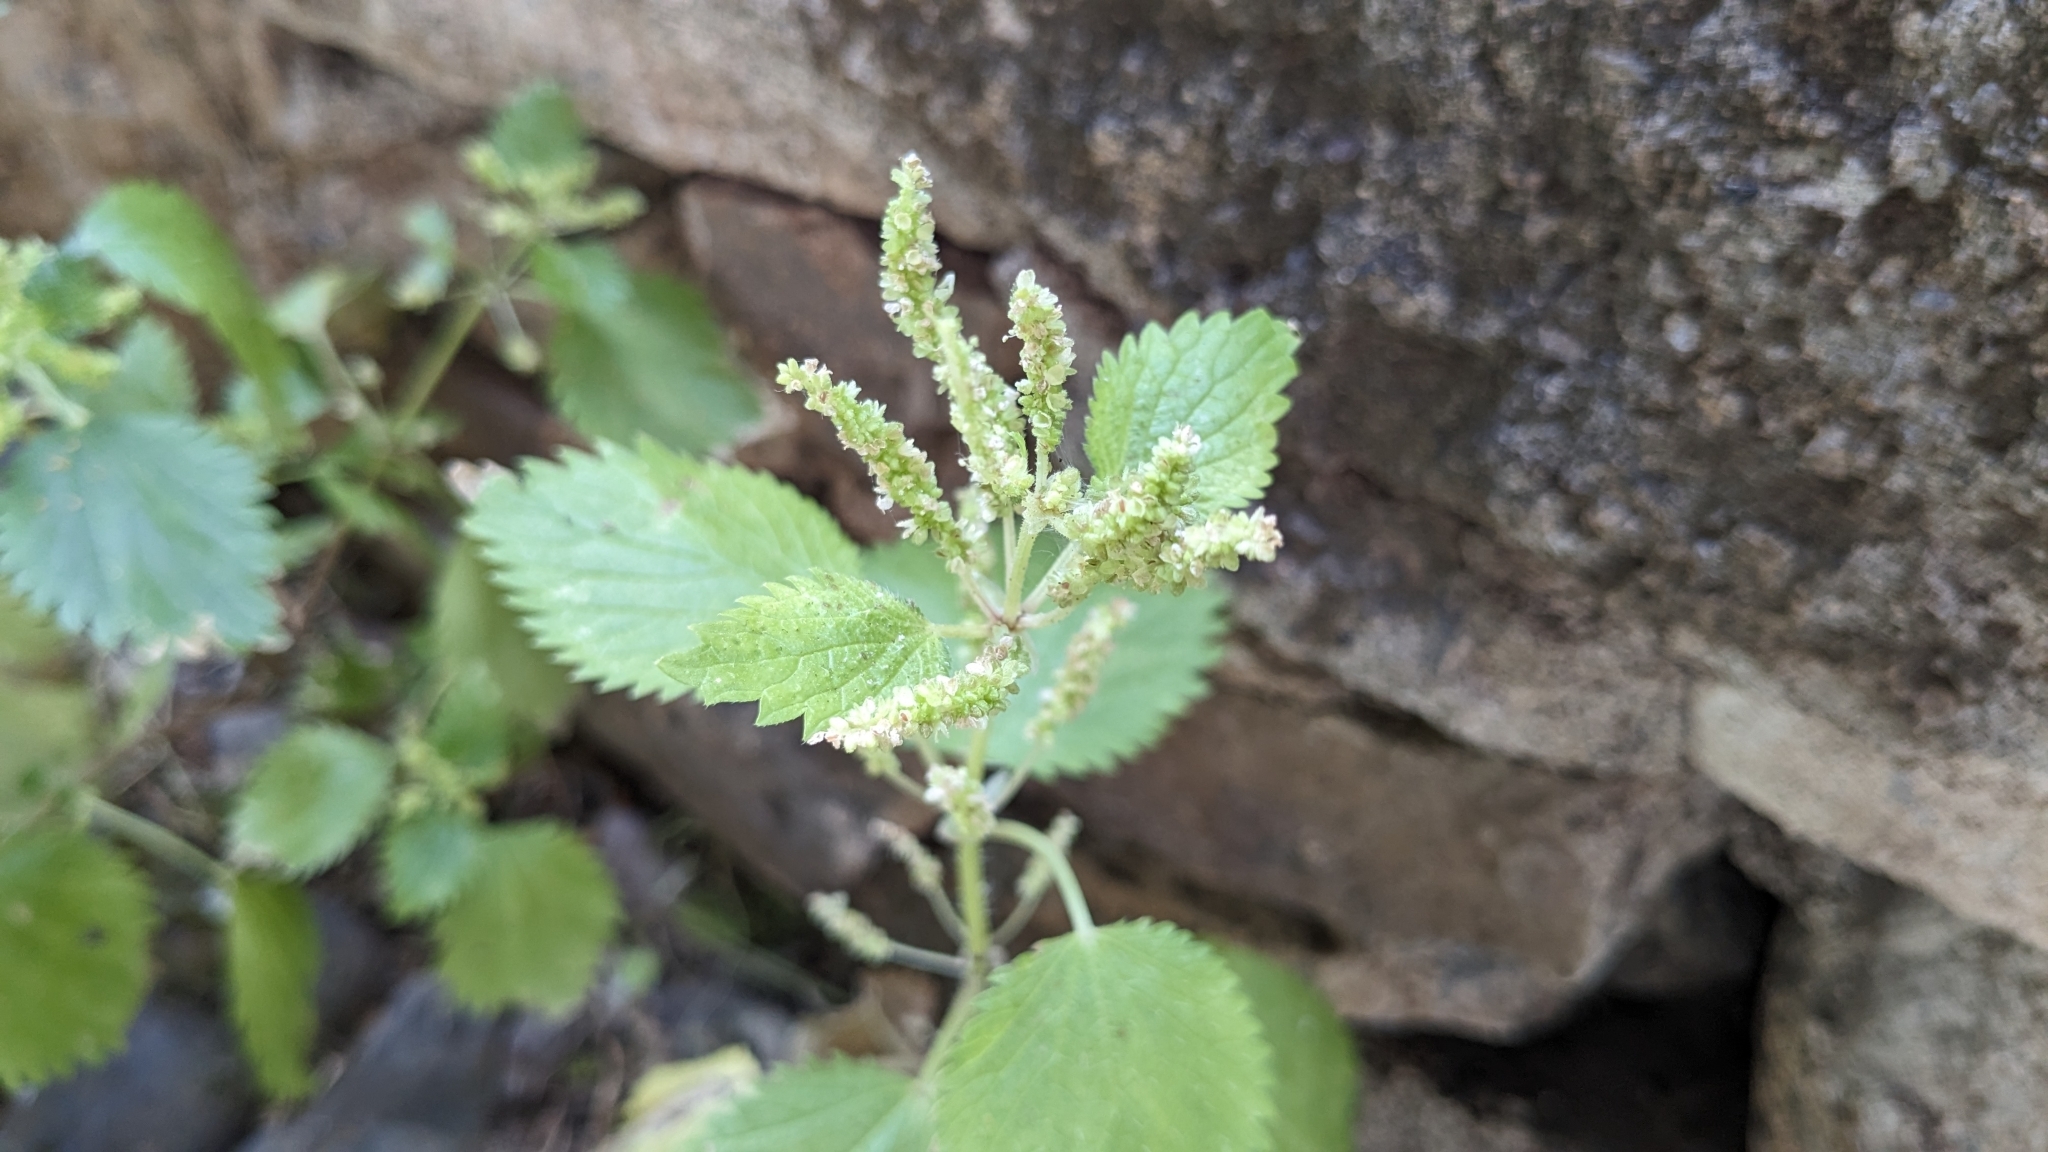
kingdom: Plantae
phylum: Tracheophyta
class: Magnoliopsida
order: Rosales
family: Urticaceae
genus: Urtica
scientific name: Urtica membranacea
